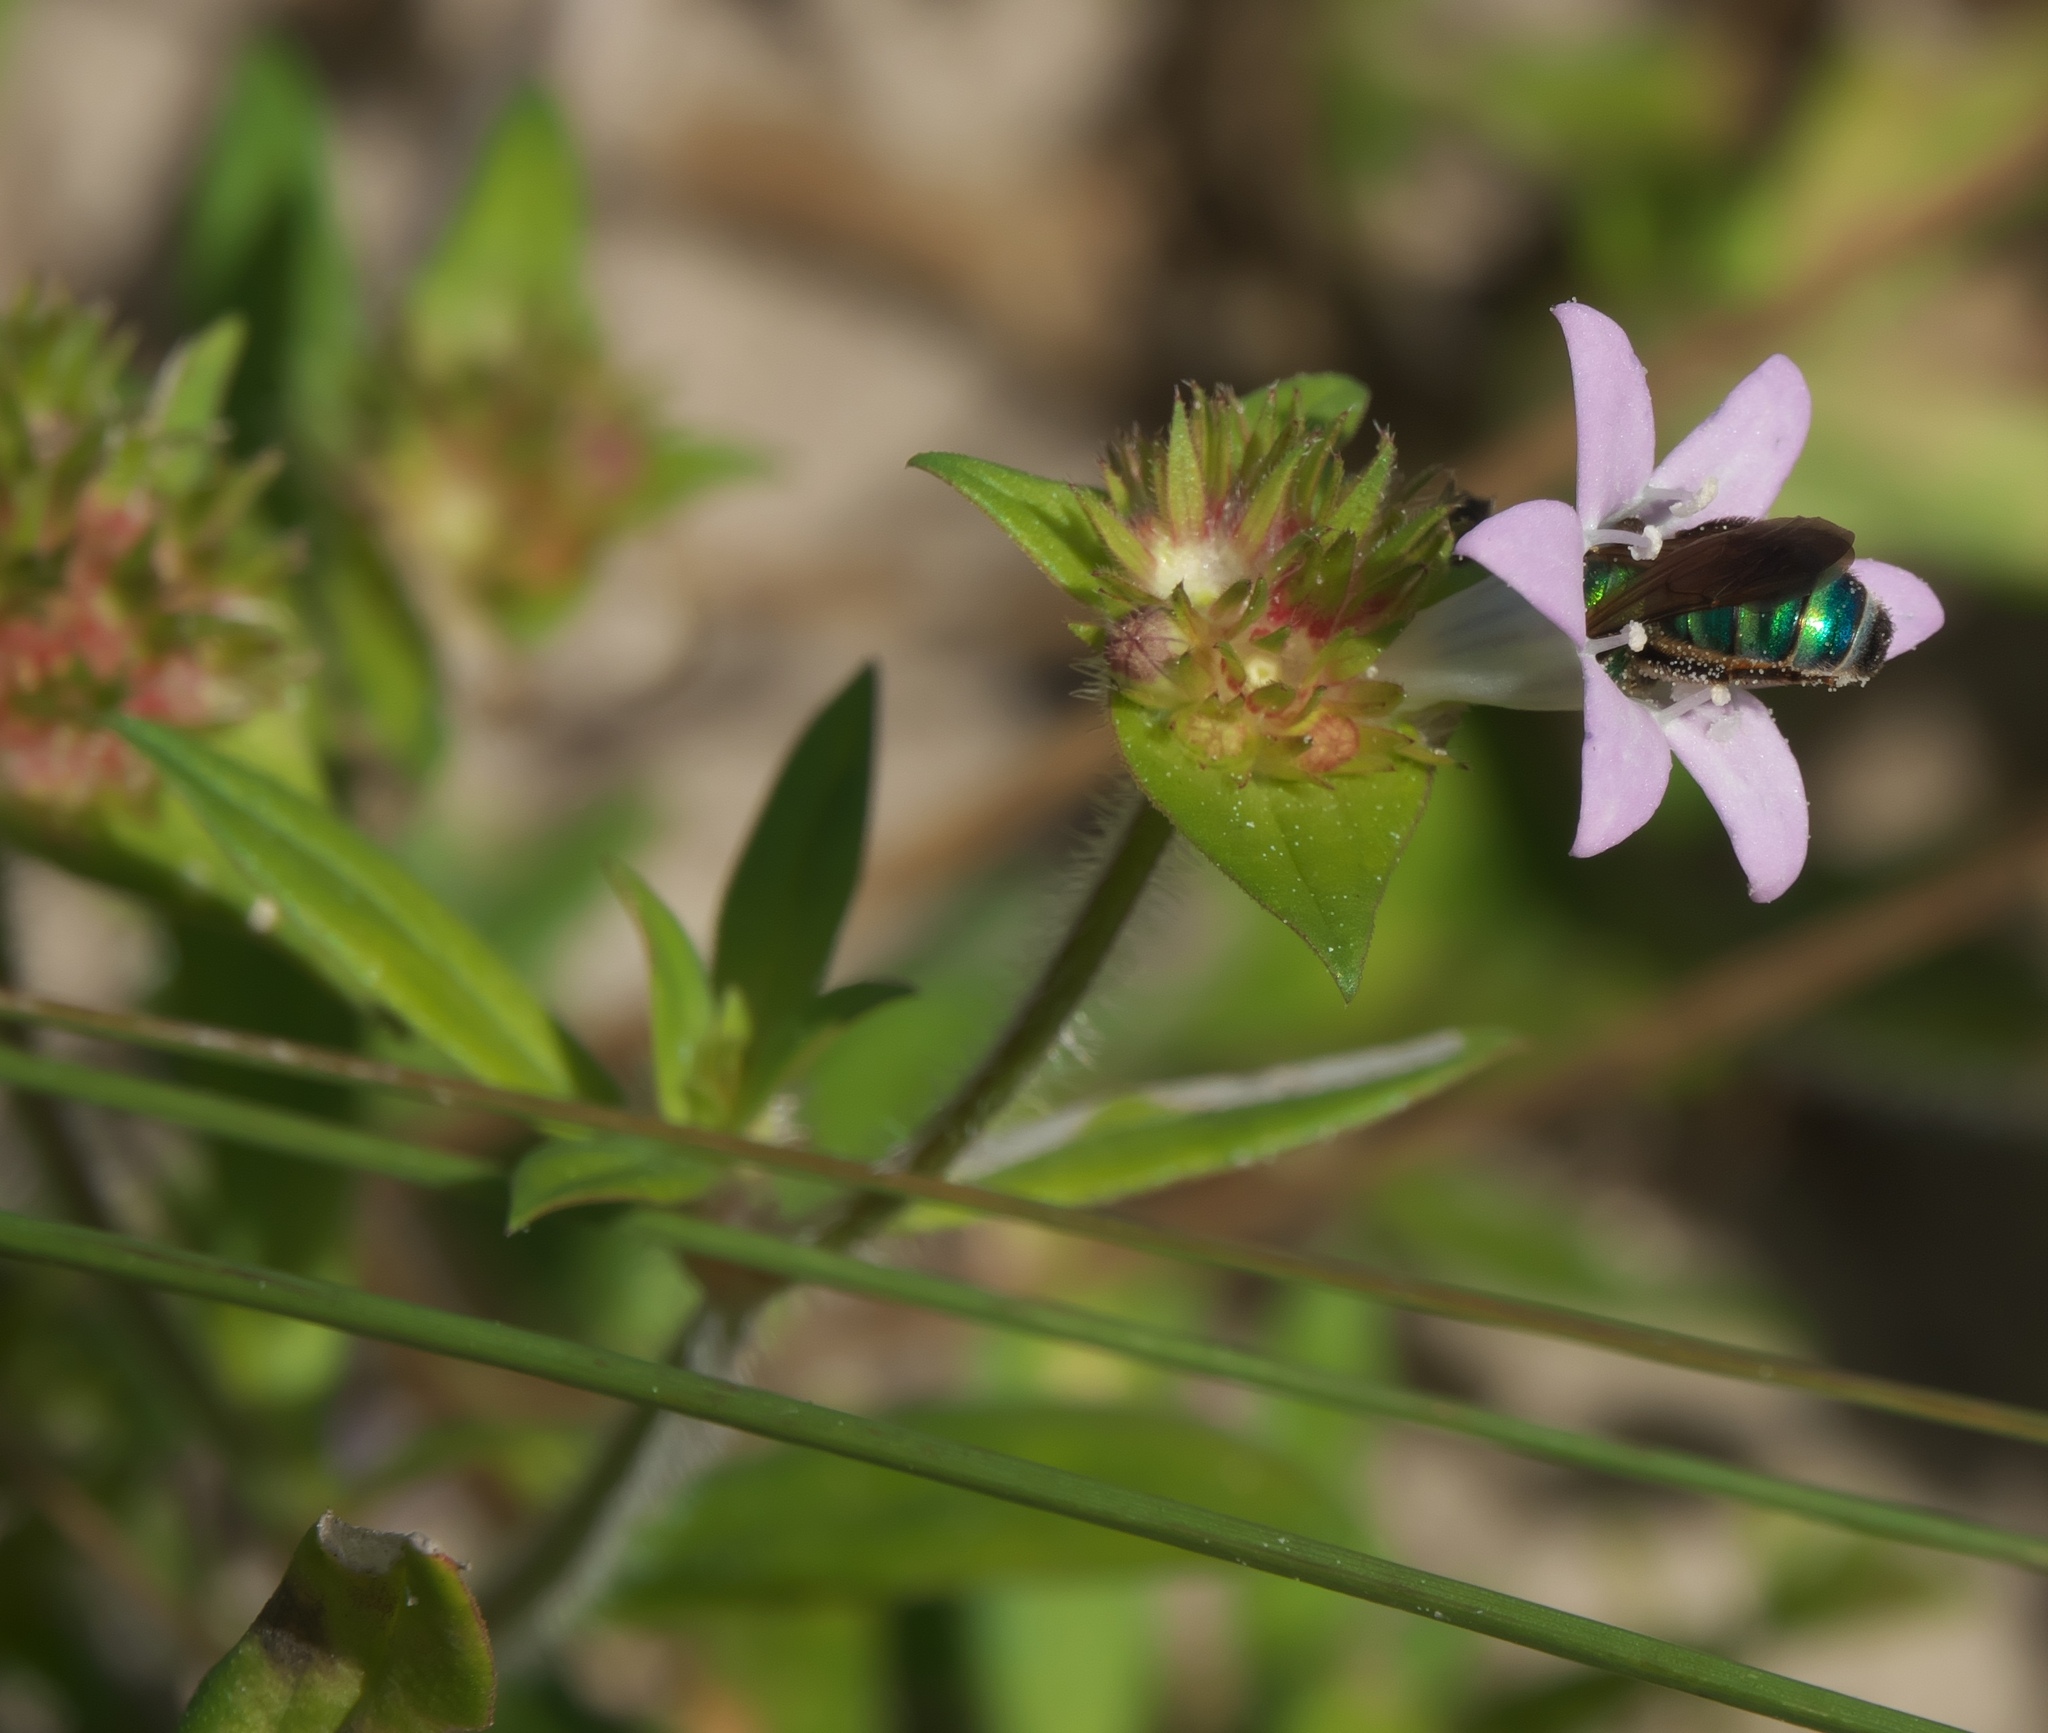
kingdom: Plantae
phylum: Tracheophyta
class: Magnoliopsida
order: Gentianales
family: Rubiaceae
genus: Richardia
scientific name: Richardia grandiflora
